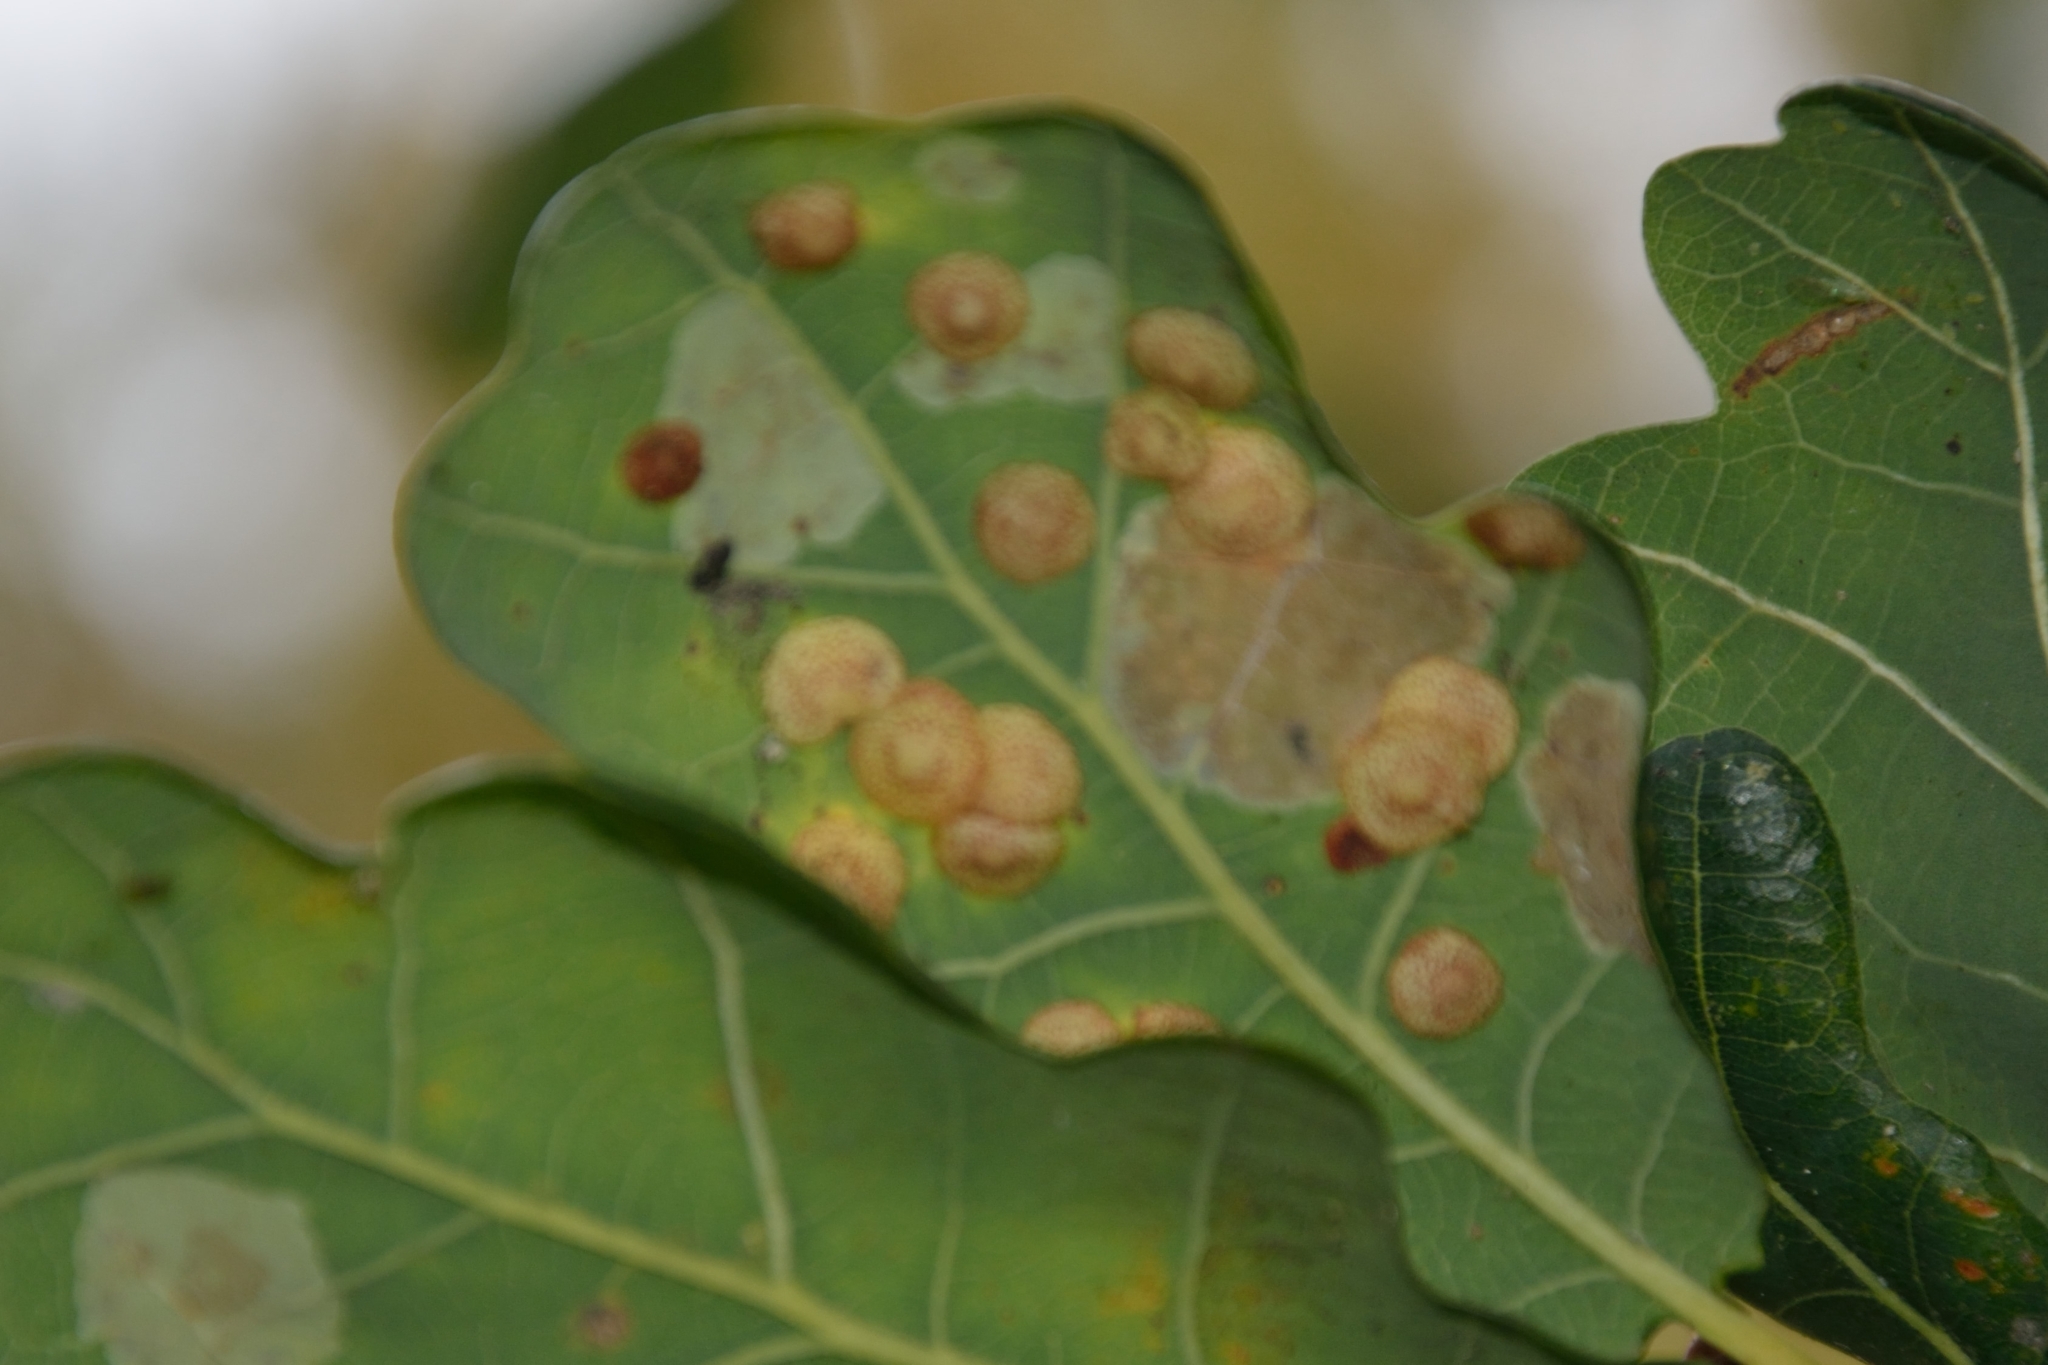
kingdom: Animalia
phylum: Arthropoda
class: Insecta
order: Hymenoptera
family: Cynipidae
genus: Neuroterus
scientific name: Neuroterus quercusbaccarum
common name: Common spangle gall
